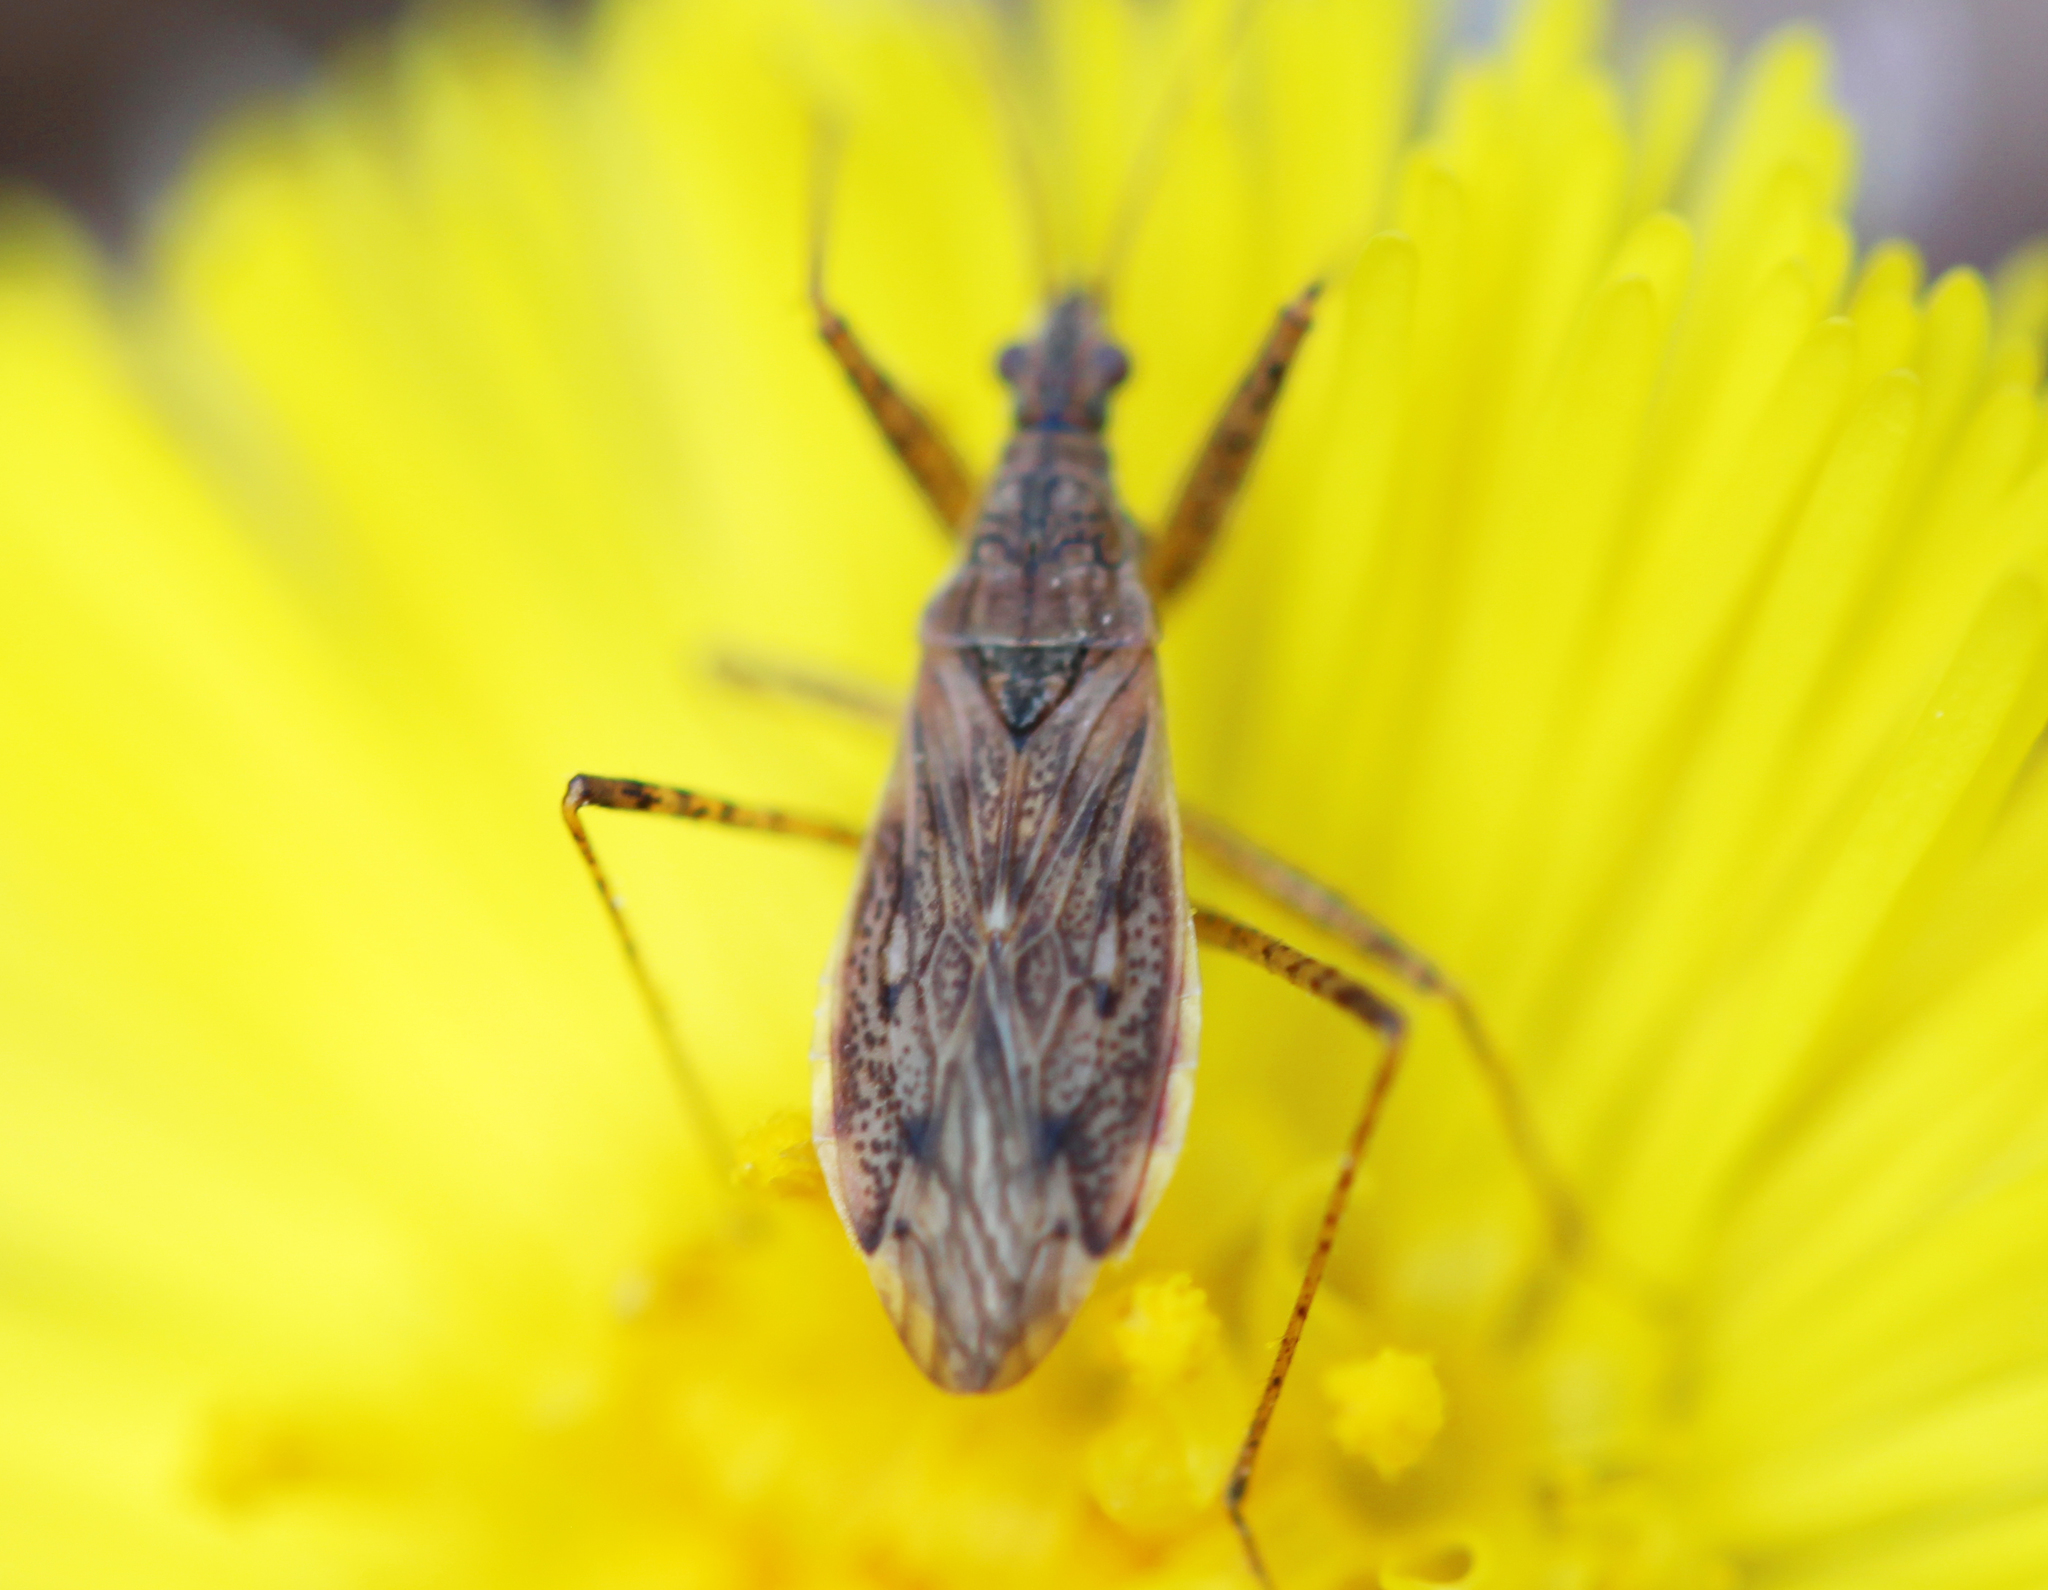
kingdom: Animalia
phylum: Arthropoda
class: Insecta
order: Hemiptera
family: Nabidae
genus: Nabis
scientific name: Nabis roseipennis
